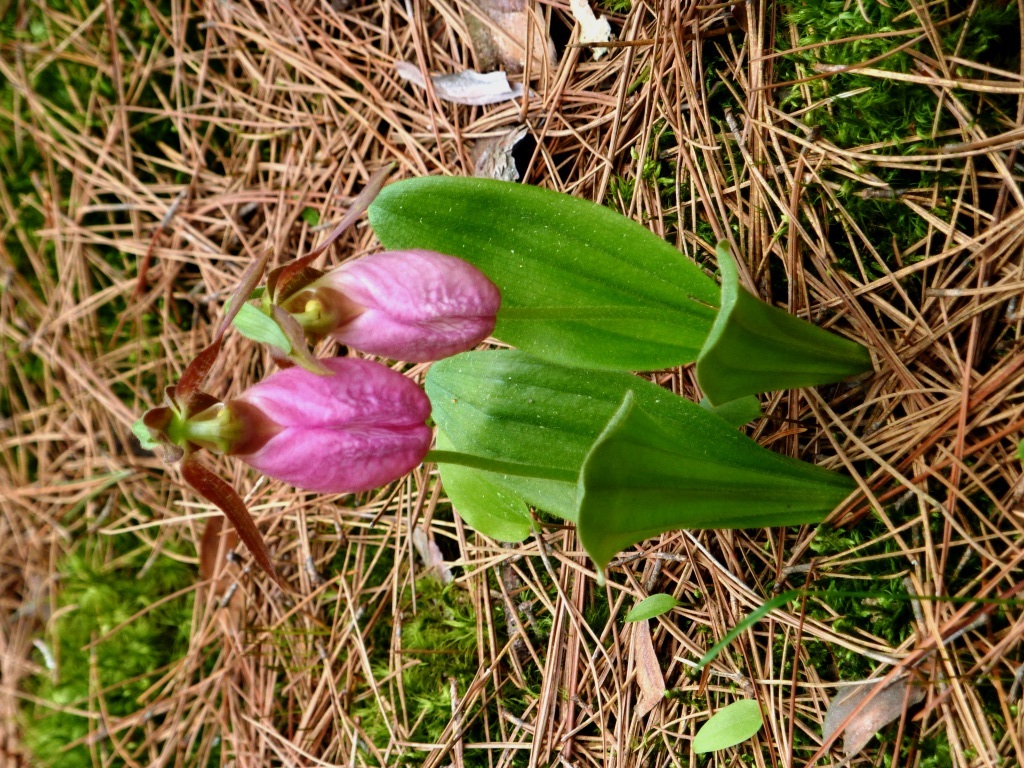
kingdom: Plantae
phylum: Tracheophyta
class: Liliopsida
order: Asparagales
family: Orchidaceae
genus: Cypripedium
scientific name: Cypripedium acaule
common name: Pink lady's-slipper
